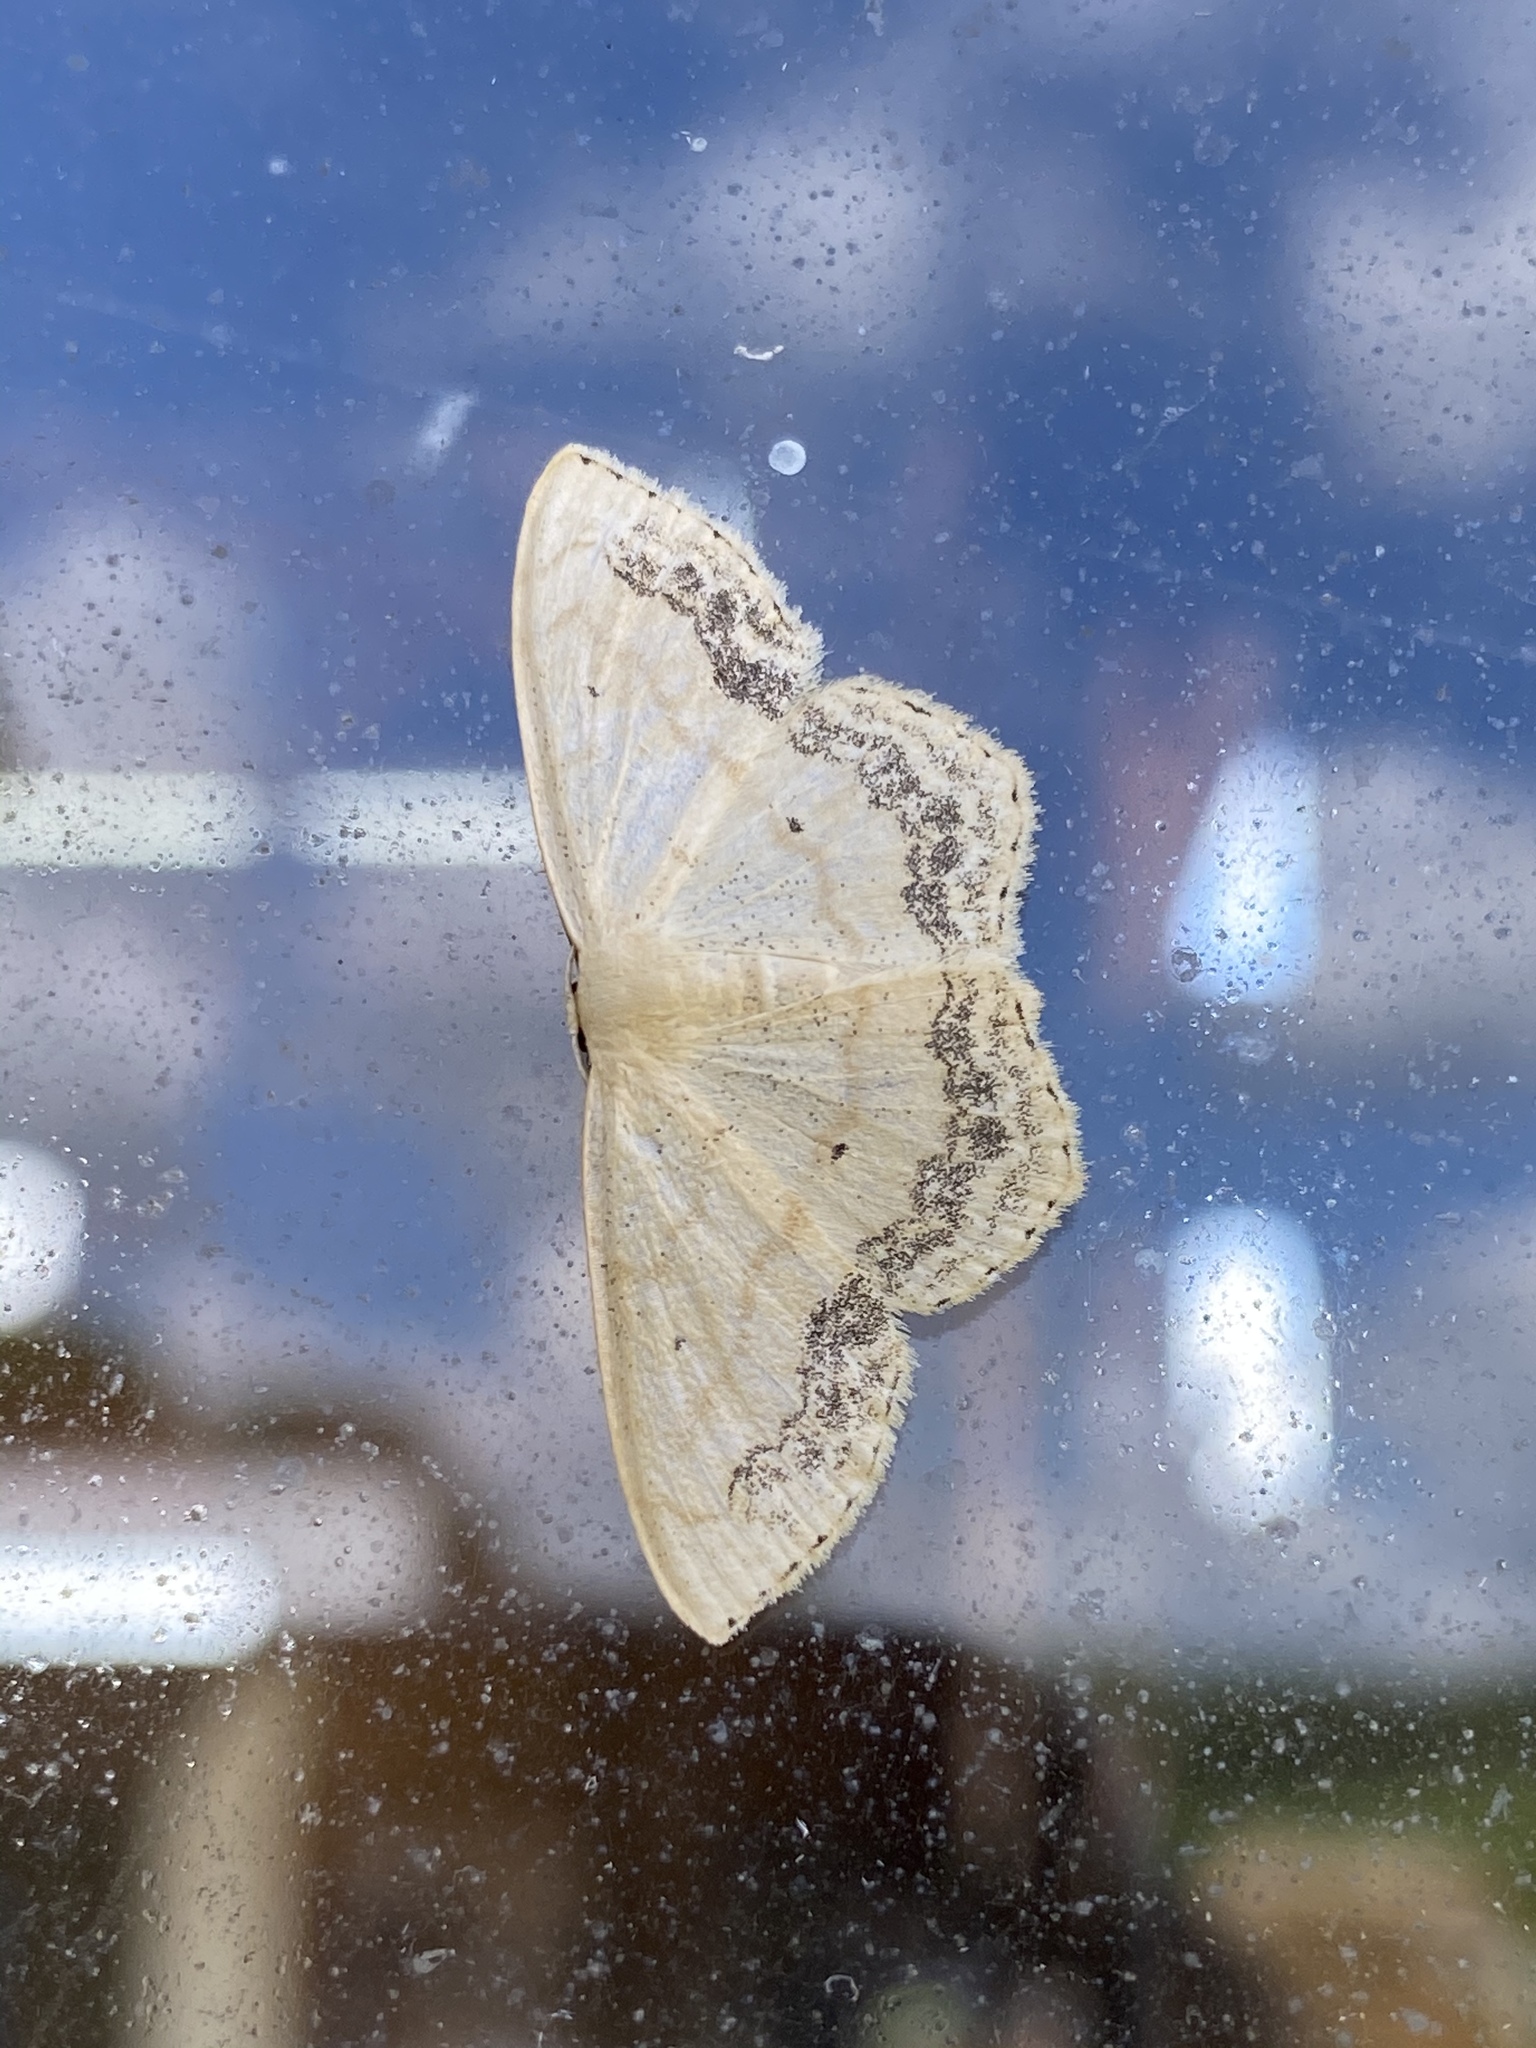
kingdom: Animalia
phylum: Arthropoda
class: Insecta
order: Lepidoptera
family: Geometridae
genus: Scopula
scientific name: Scopula limboundata
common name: Large lace border
